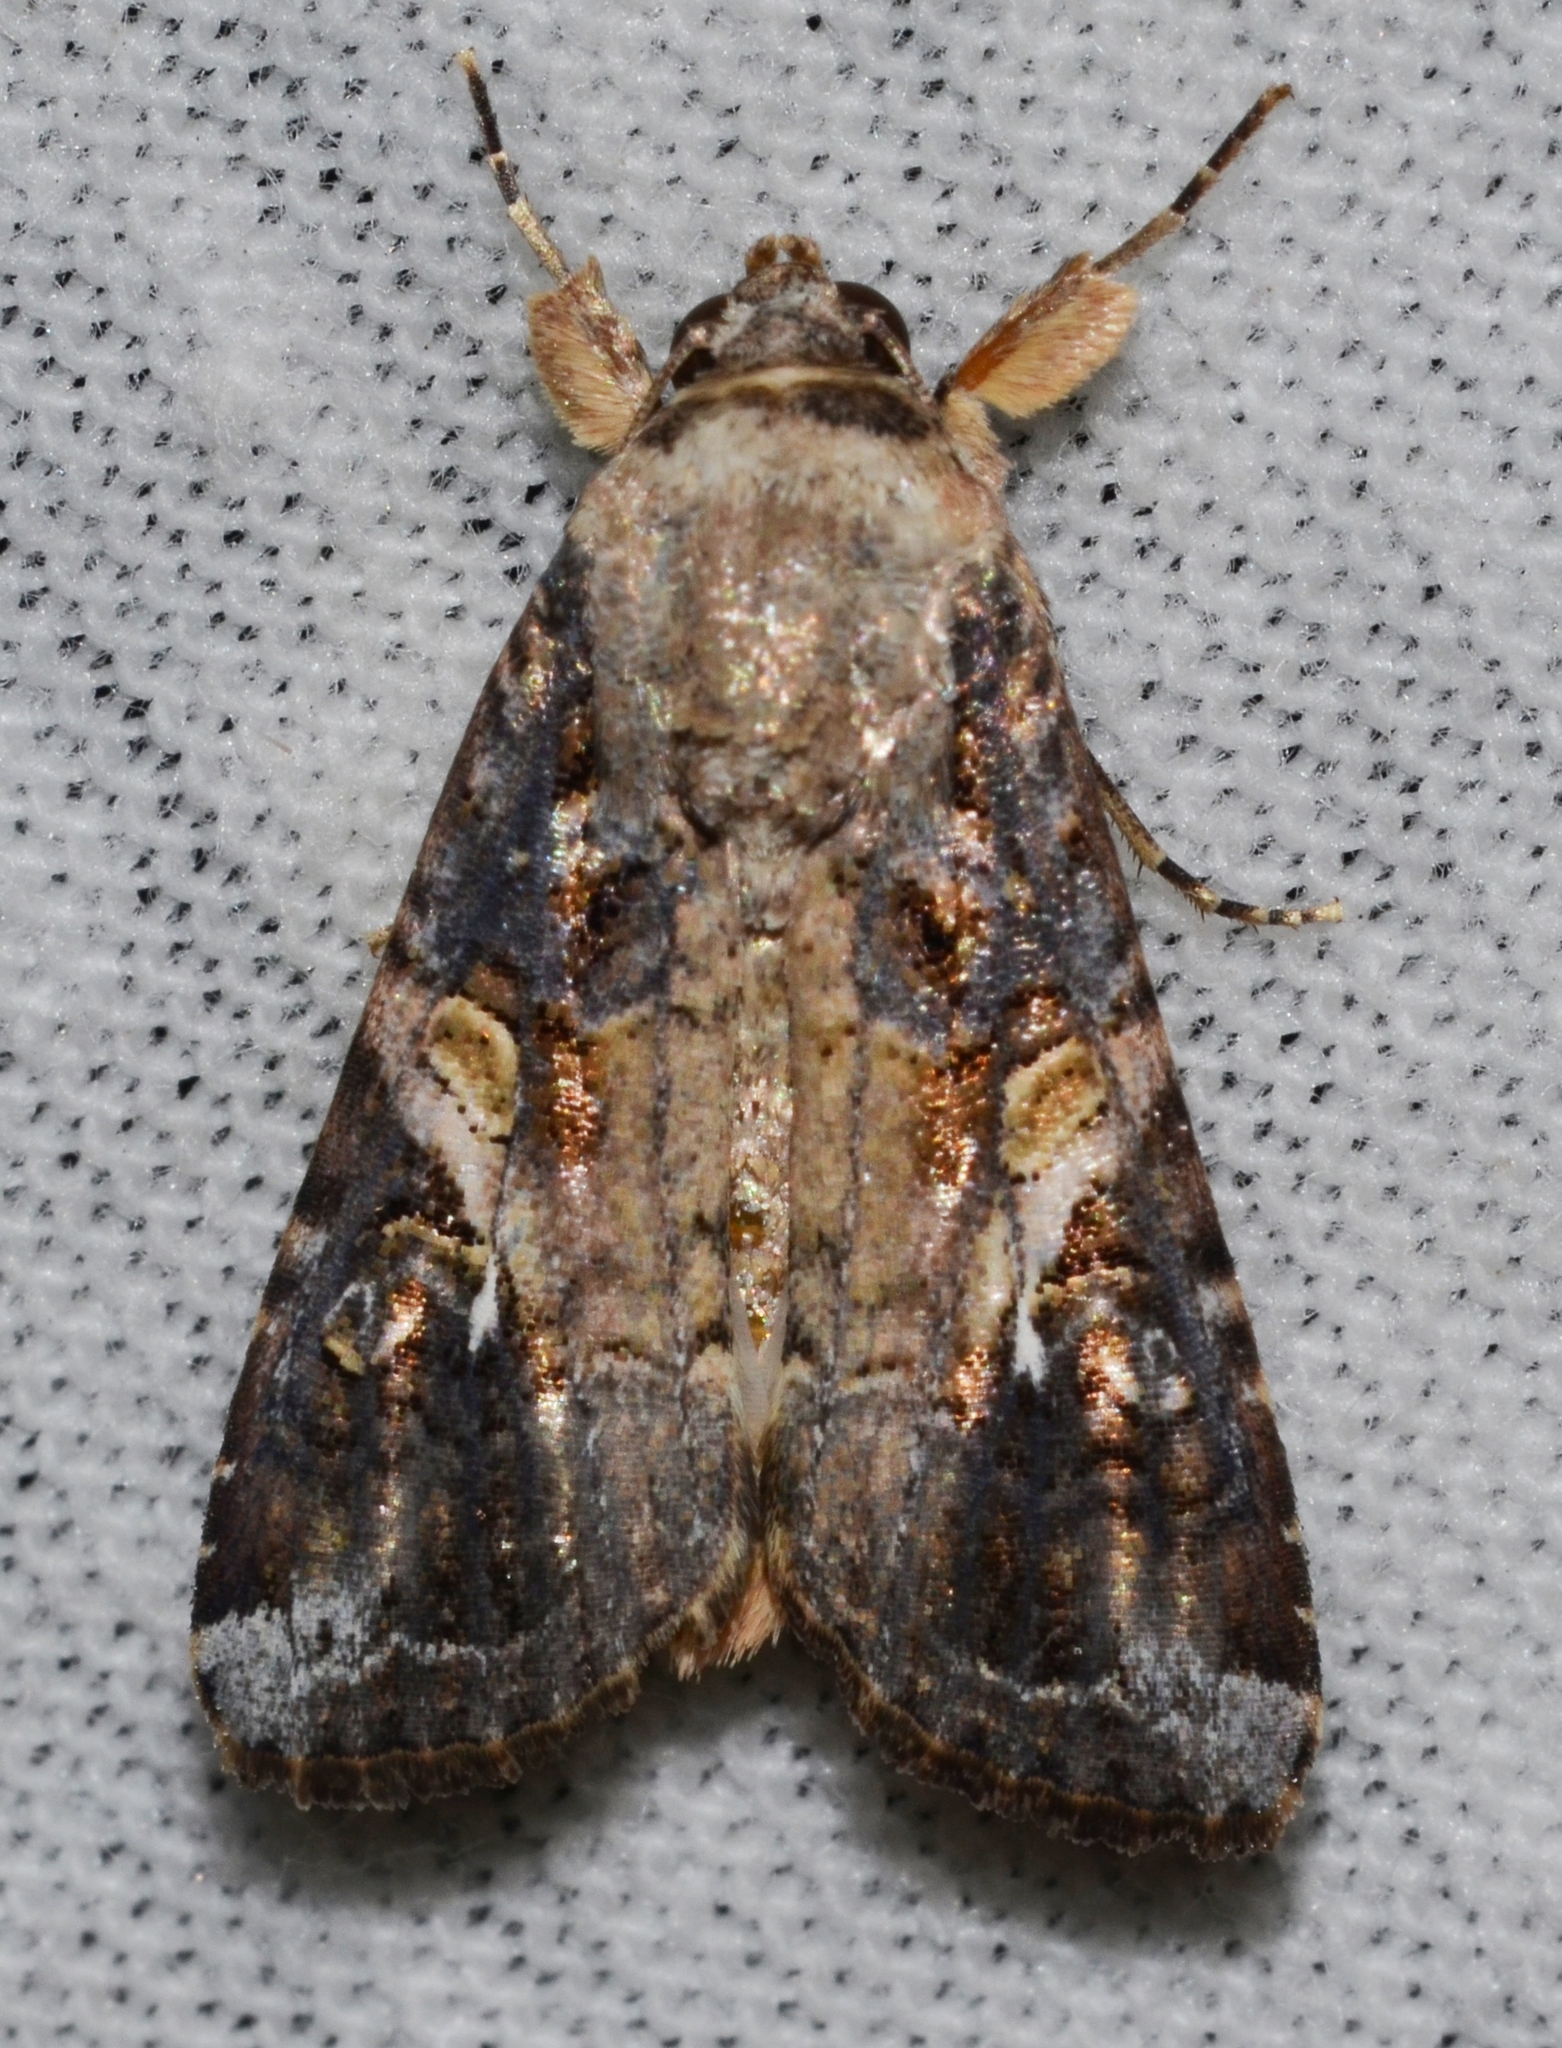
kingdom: Animalia
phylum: Arthropoda
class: Insecta
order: Lepidoptera
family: Noctuidae
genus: Spodoptera
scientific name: Spodoptera frugiperda
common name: Fall armyworm
